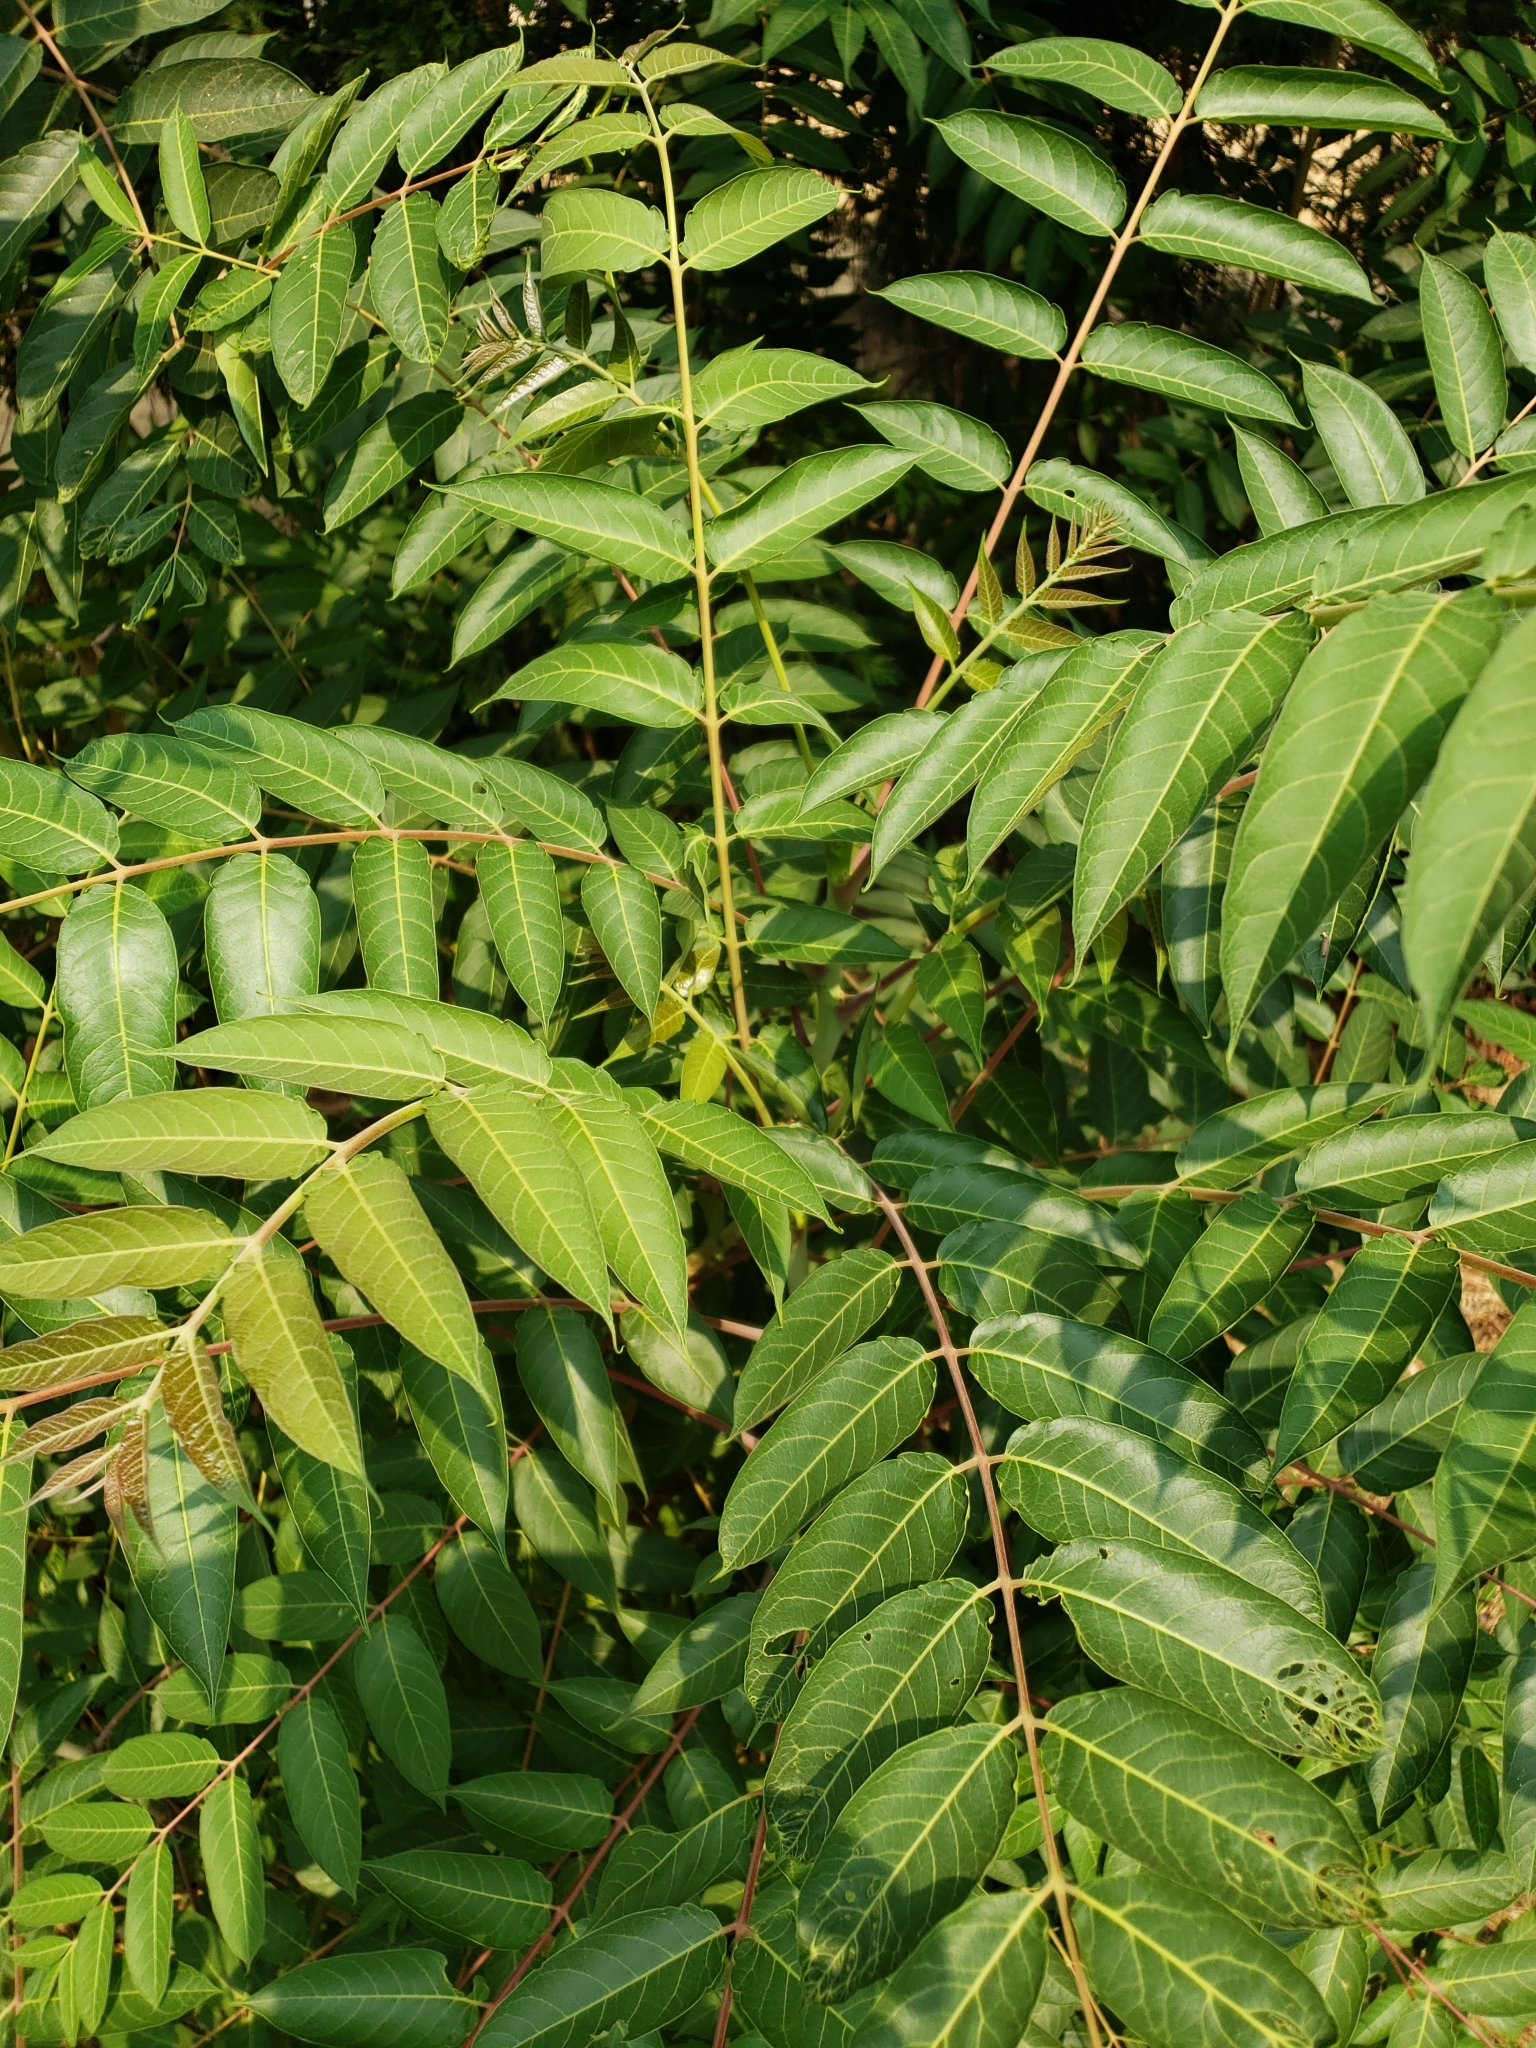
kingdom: Plantae
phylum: Tracheophyta
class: Magnoliopsida
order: Sapindales
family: Simaroubaceae
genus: Ailanthus
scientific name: Ailanthus altissima
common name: Tree-of-heaven
